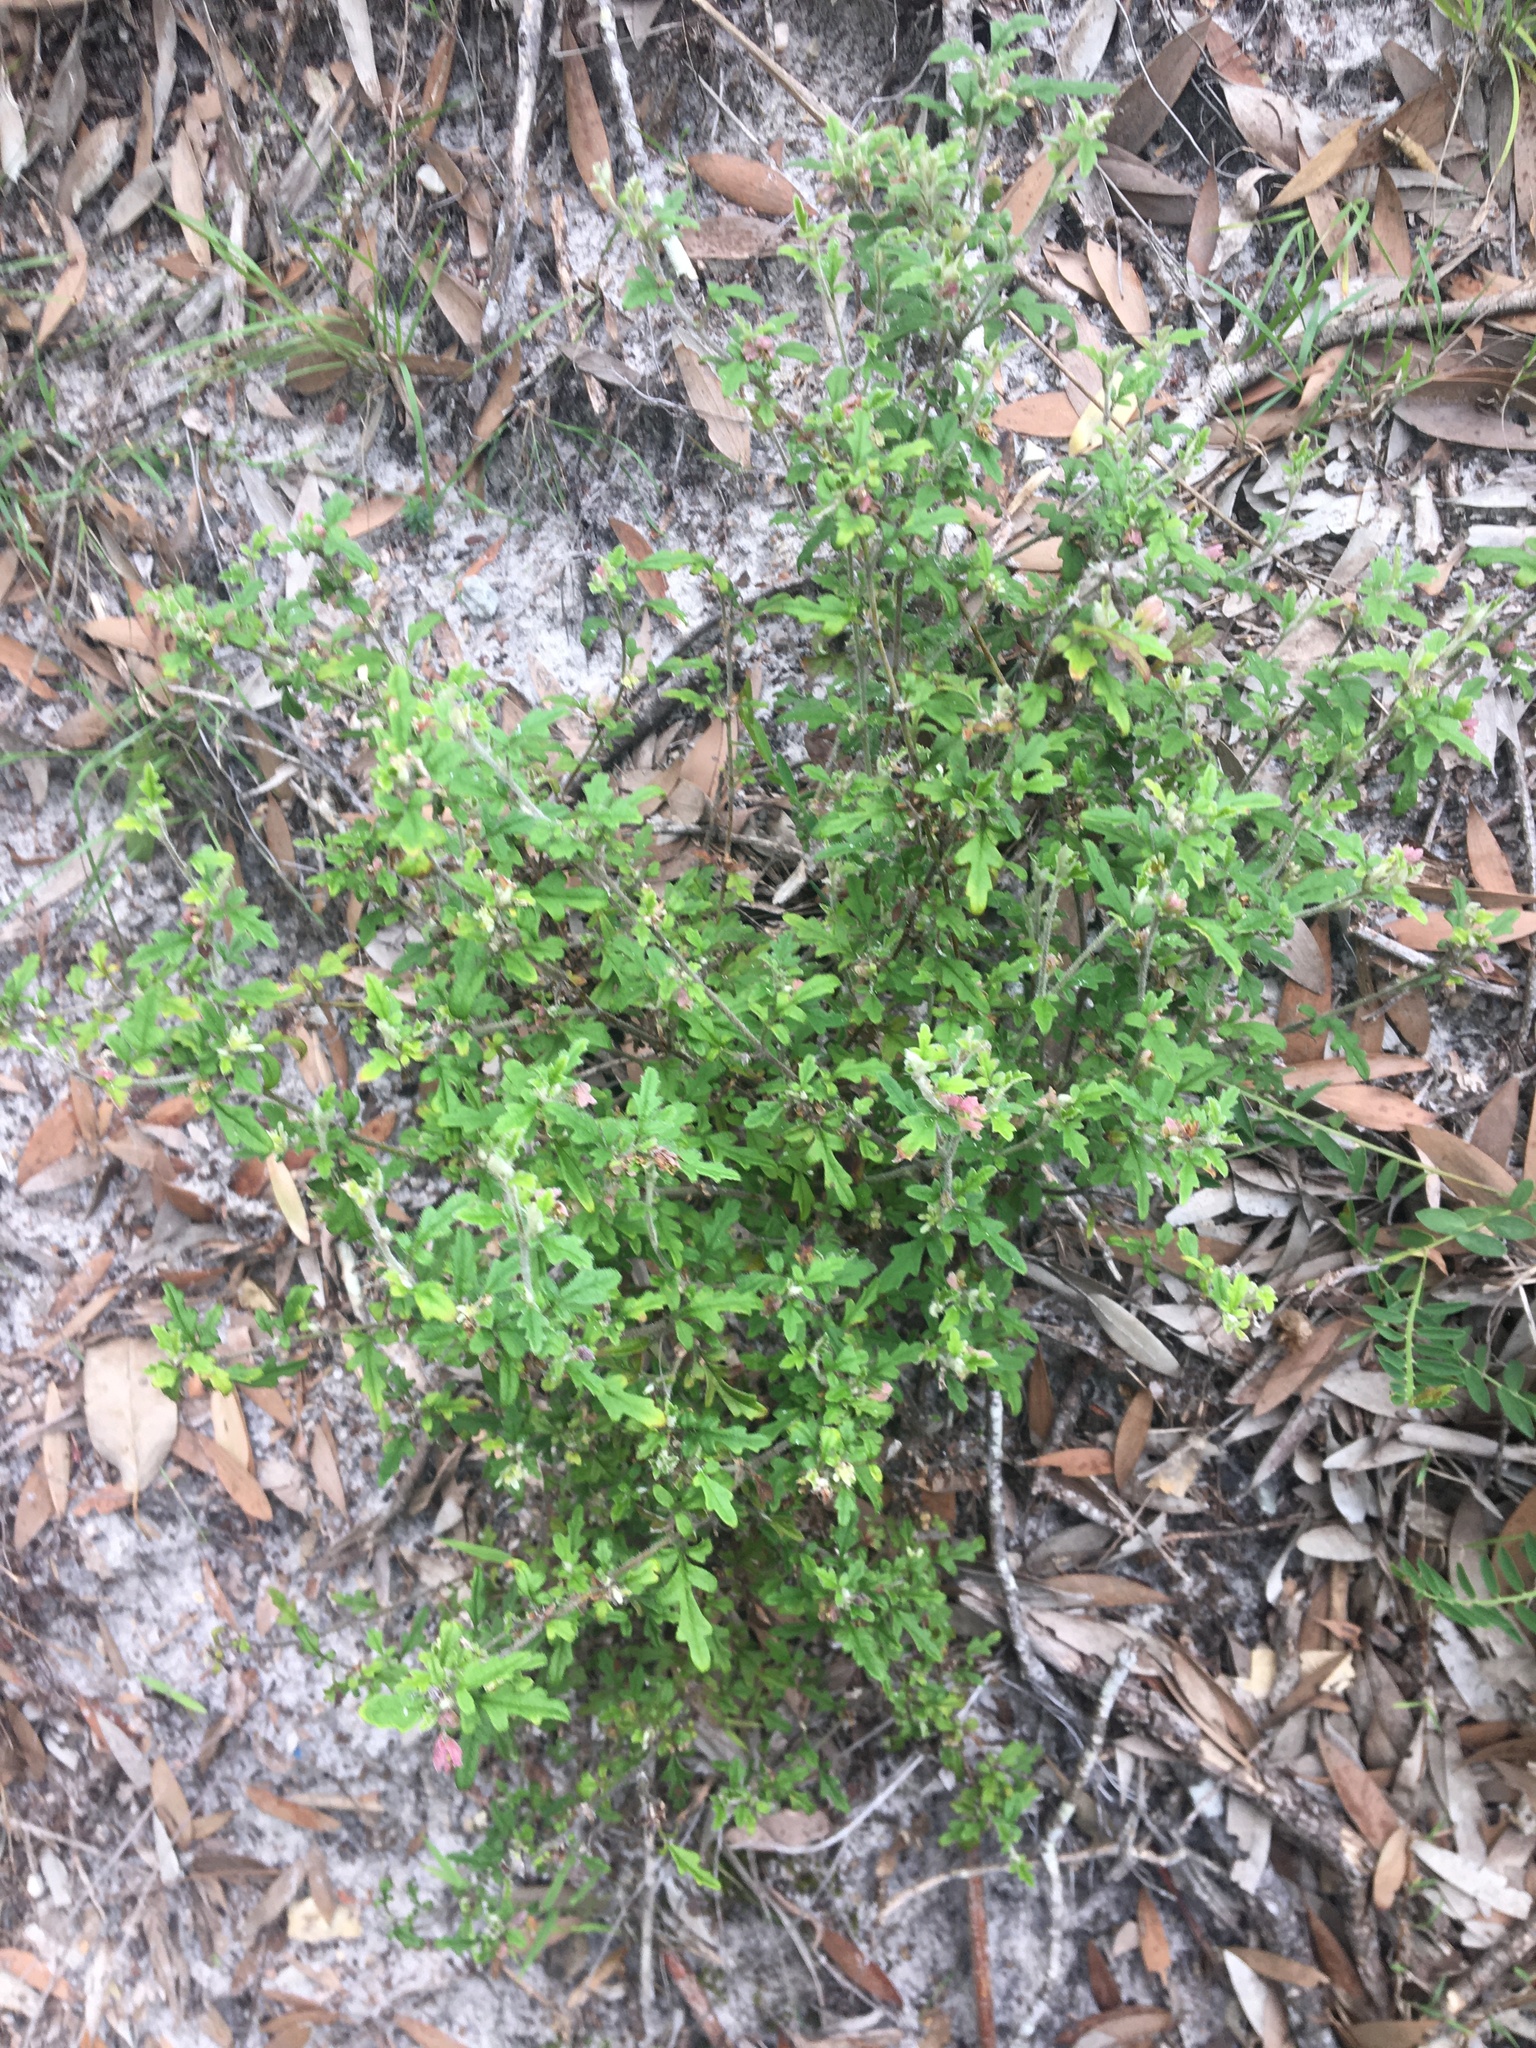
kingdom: Plantae
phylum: Tracheophyta
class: Magnoliopsida
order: Apiales
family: Apiaceae
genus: Xanthosia
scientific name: Xanthosia pilosa
